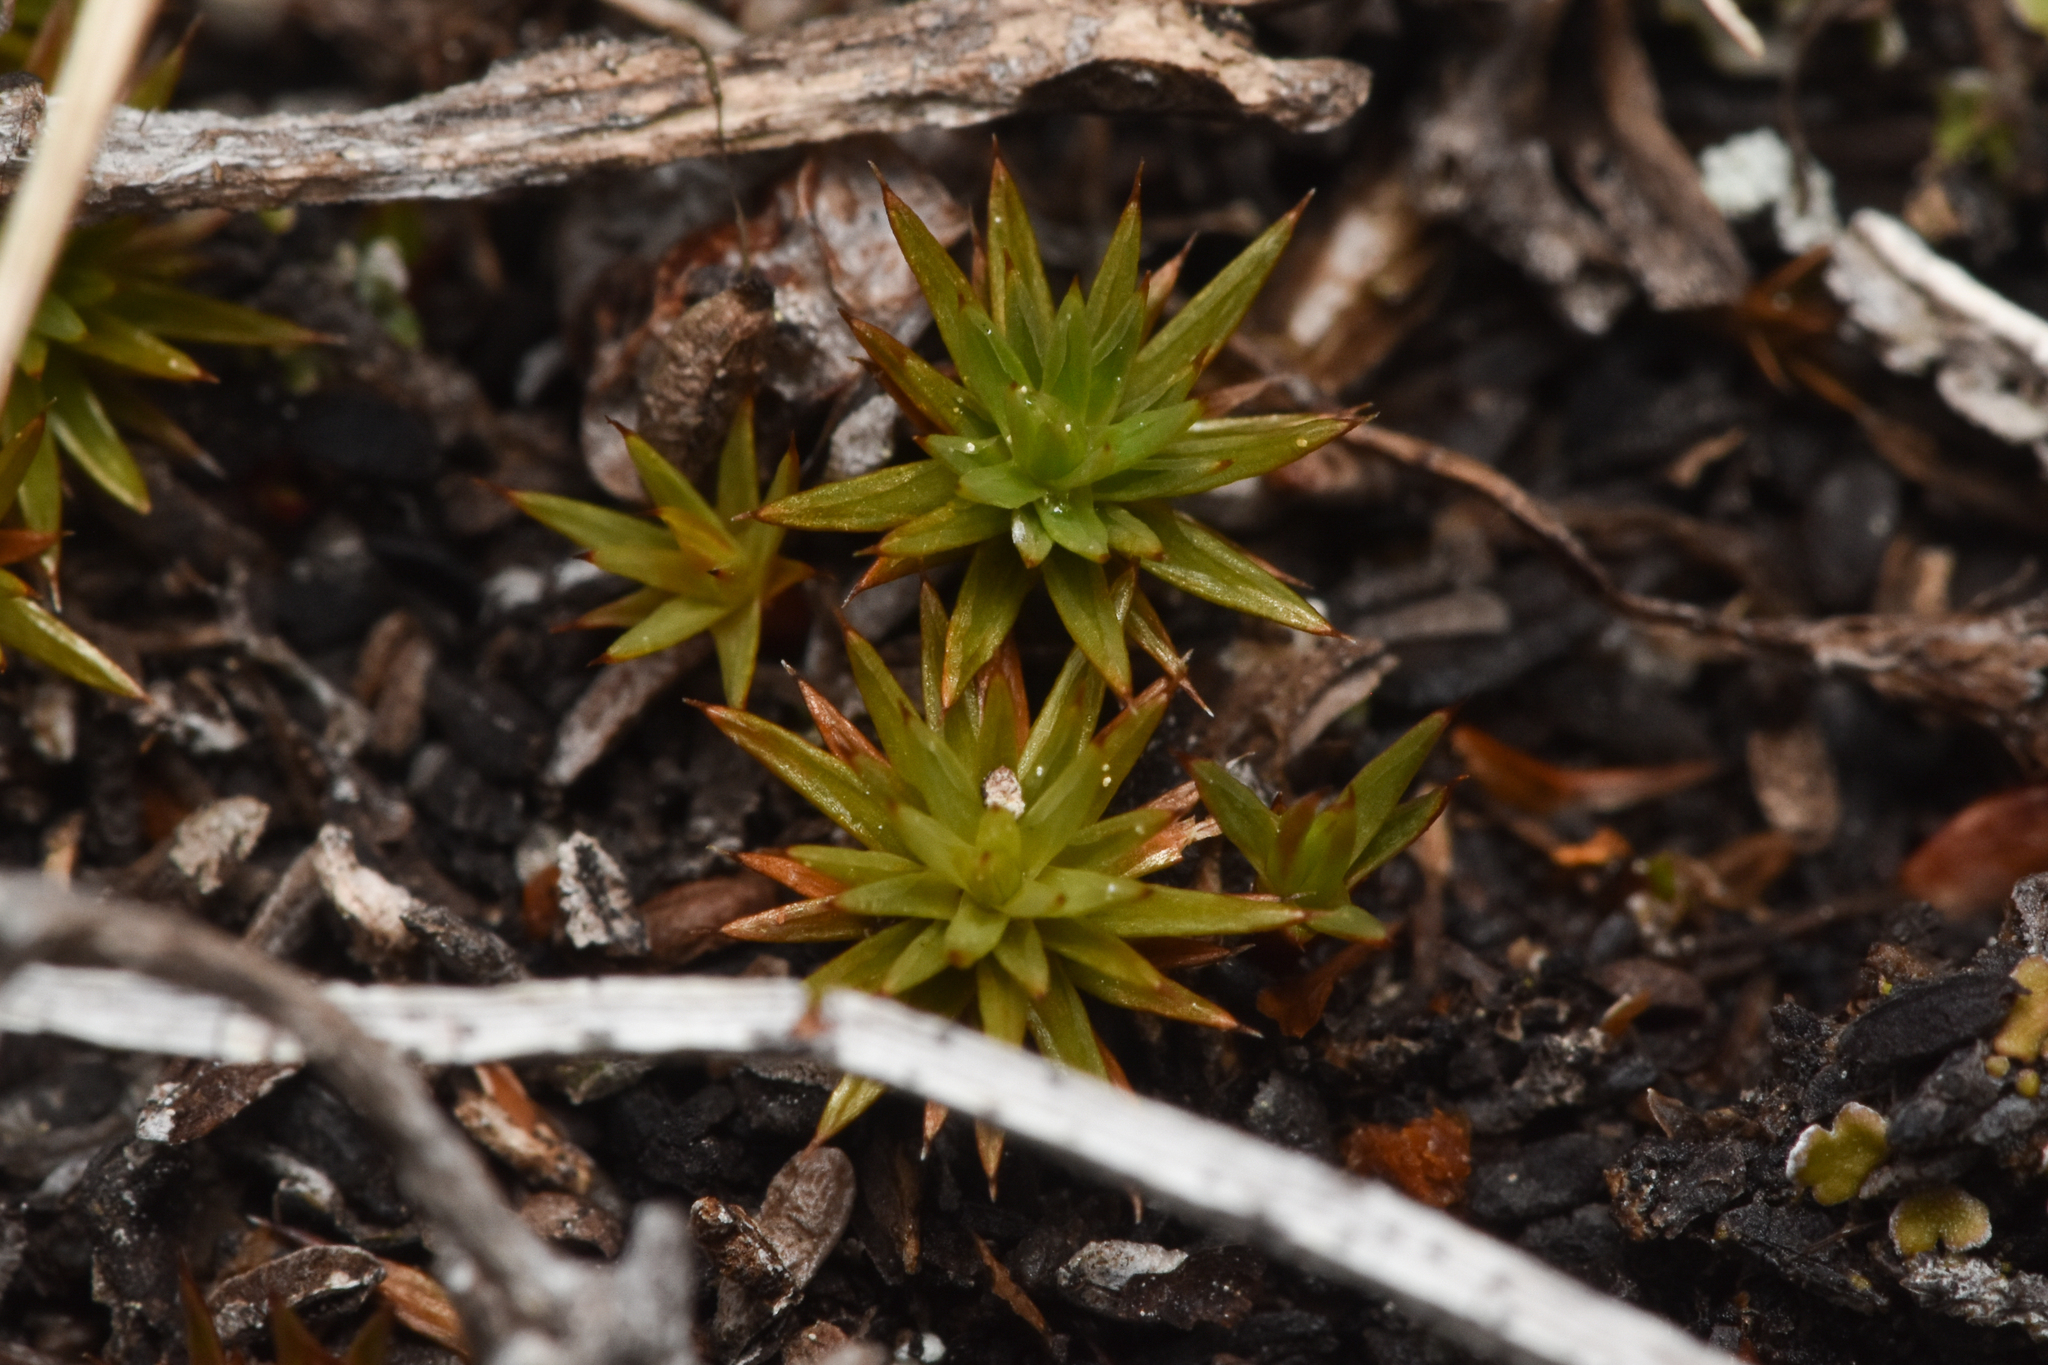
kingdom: Plantae
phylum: Bryophyta
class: Polytrichopsida
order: Polytrichales
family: Polytrichaceae
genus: Polytrichum
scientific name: Polytrichum juniperinum
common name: Juniper haircap moss
